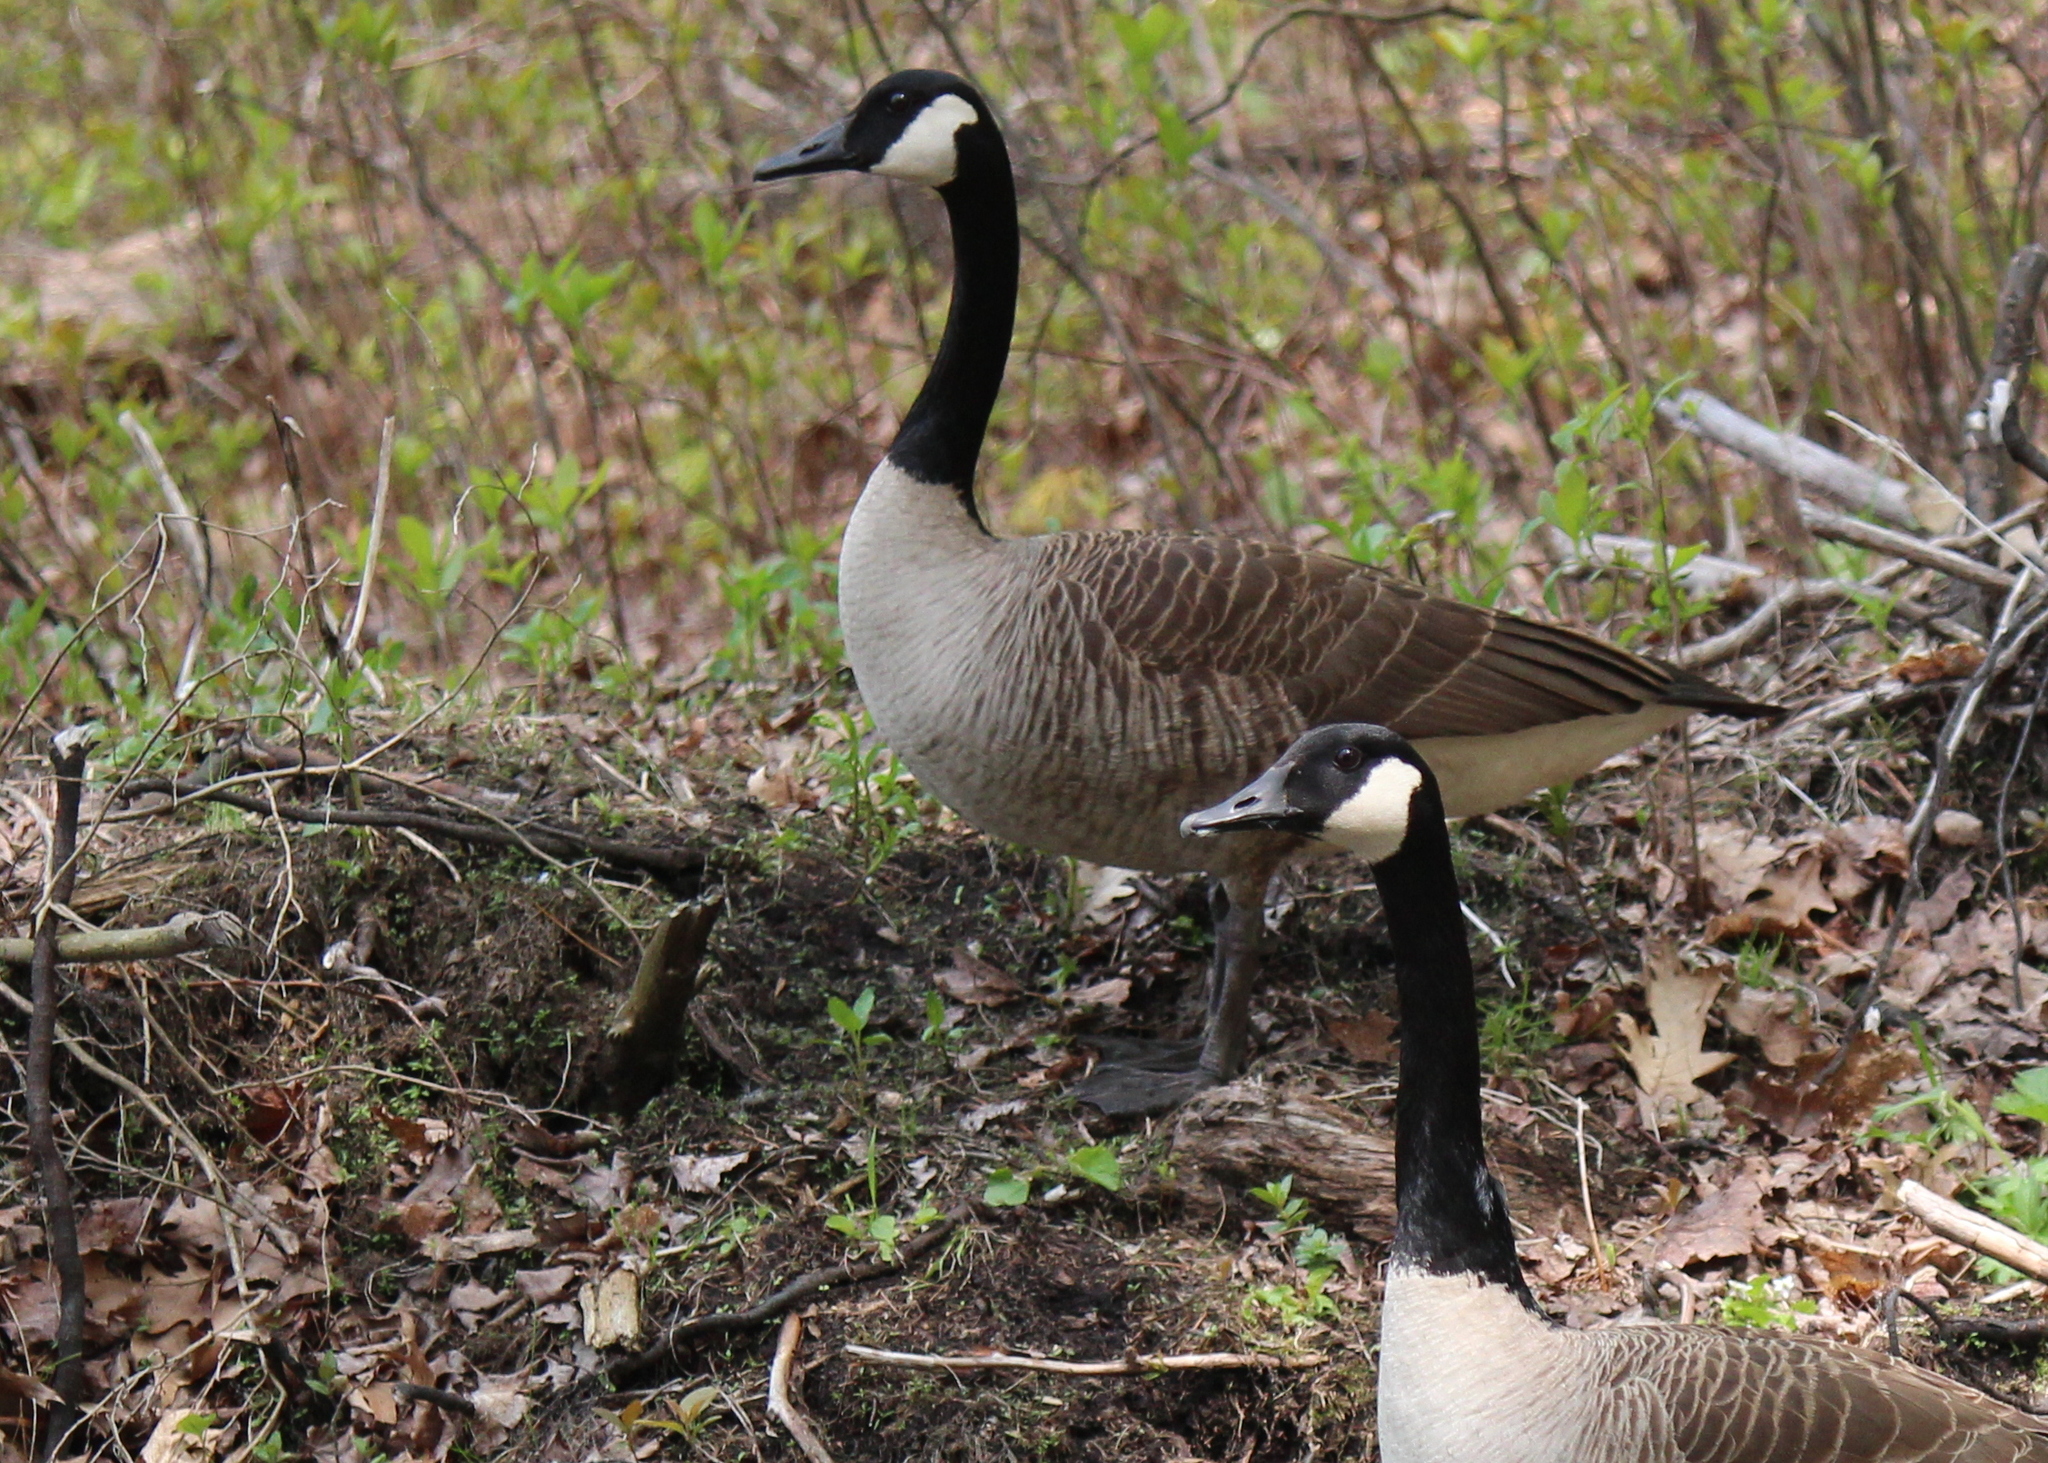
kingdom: Animalia
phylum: Chordata
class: Aves
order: Anseriformes
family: Anatidae
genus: Branta
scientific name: Branta canadensis
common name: Canada goose
